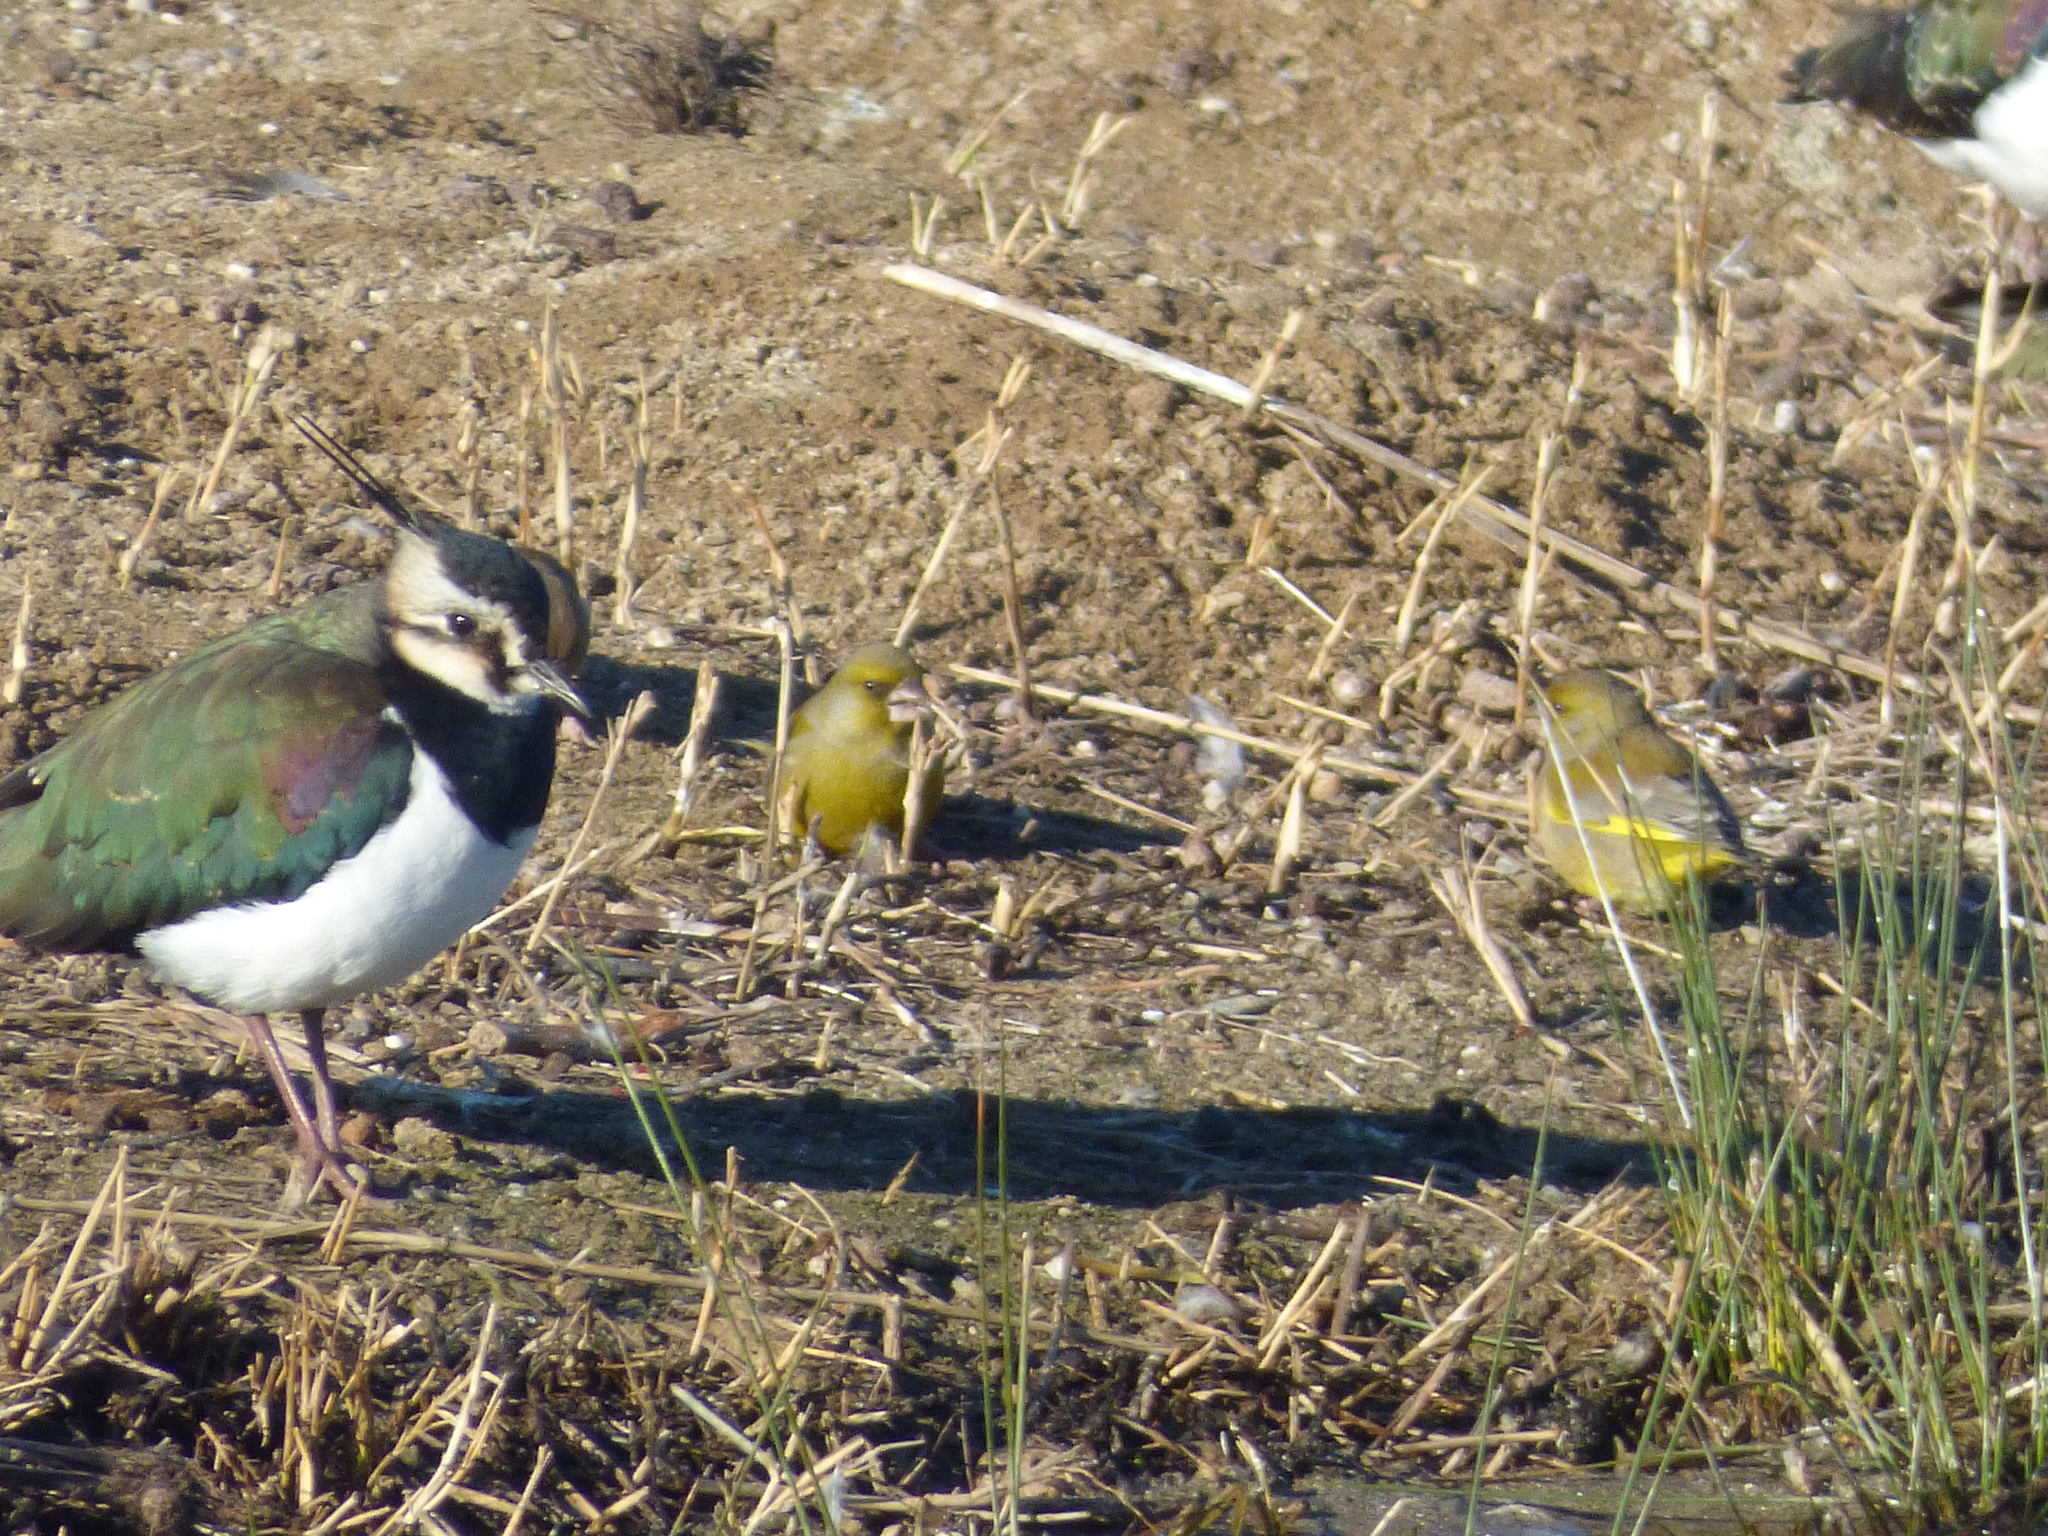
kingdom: Plantae
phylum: Tracheophyta
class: Liliopsida
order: Poales
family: Poaceae
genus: Chloris
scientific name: Chloris chloris
